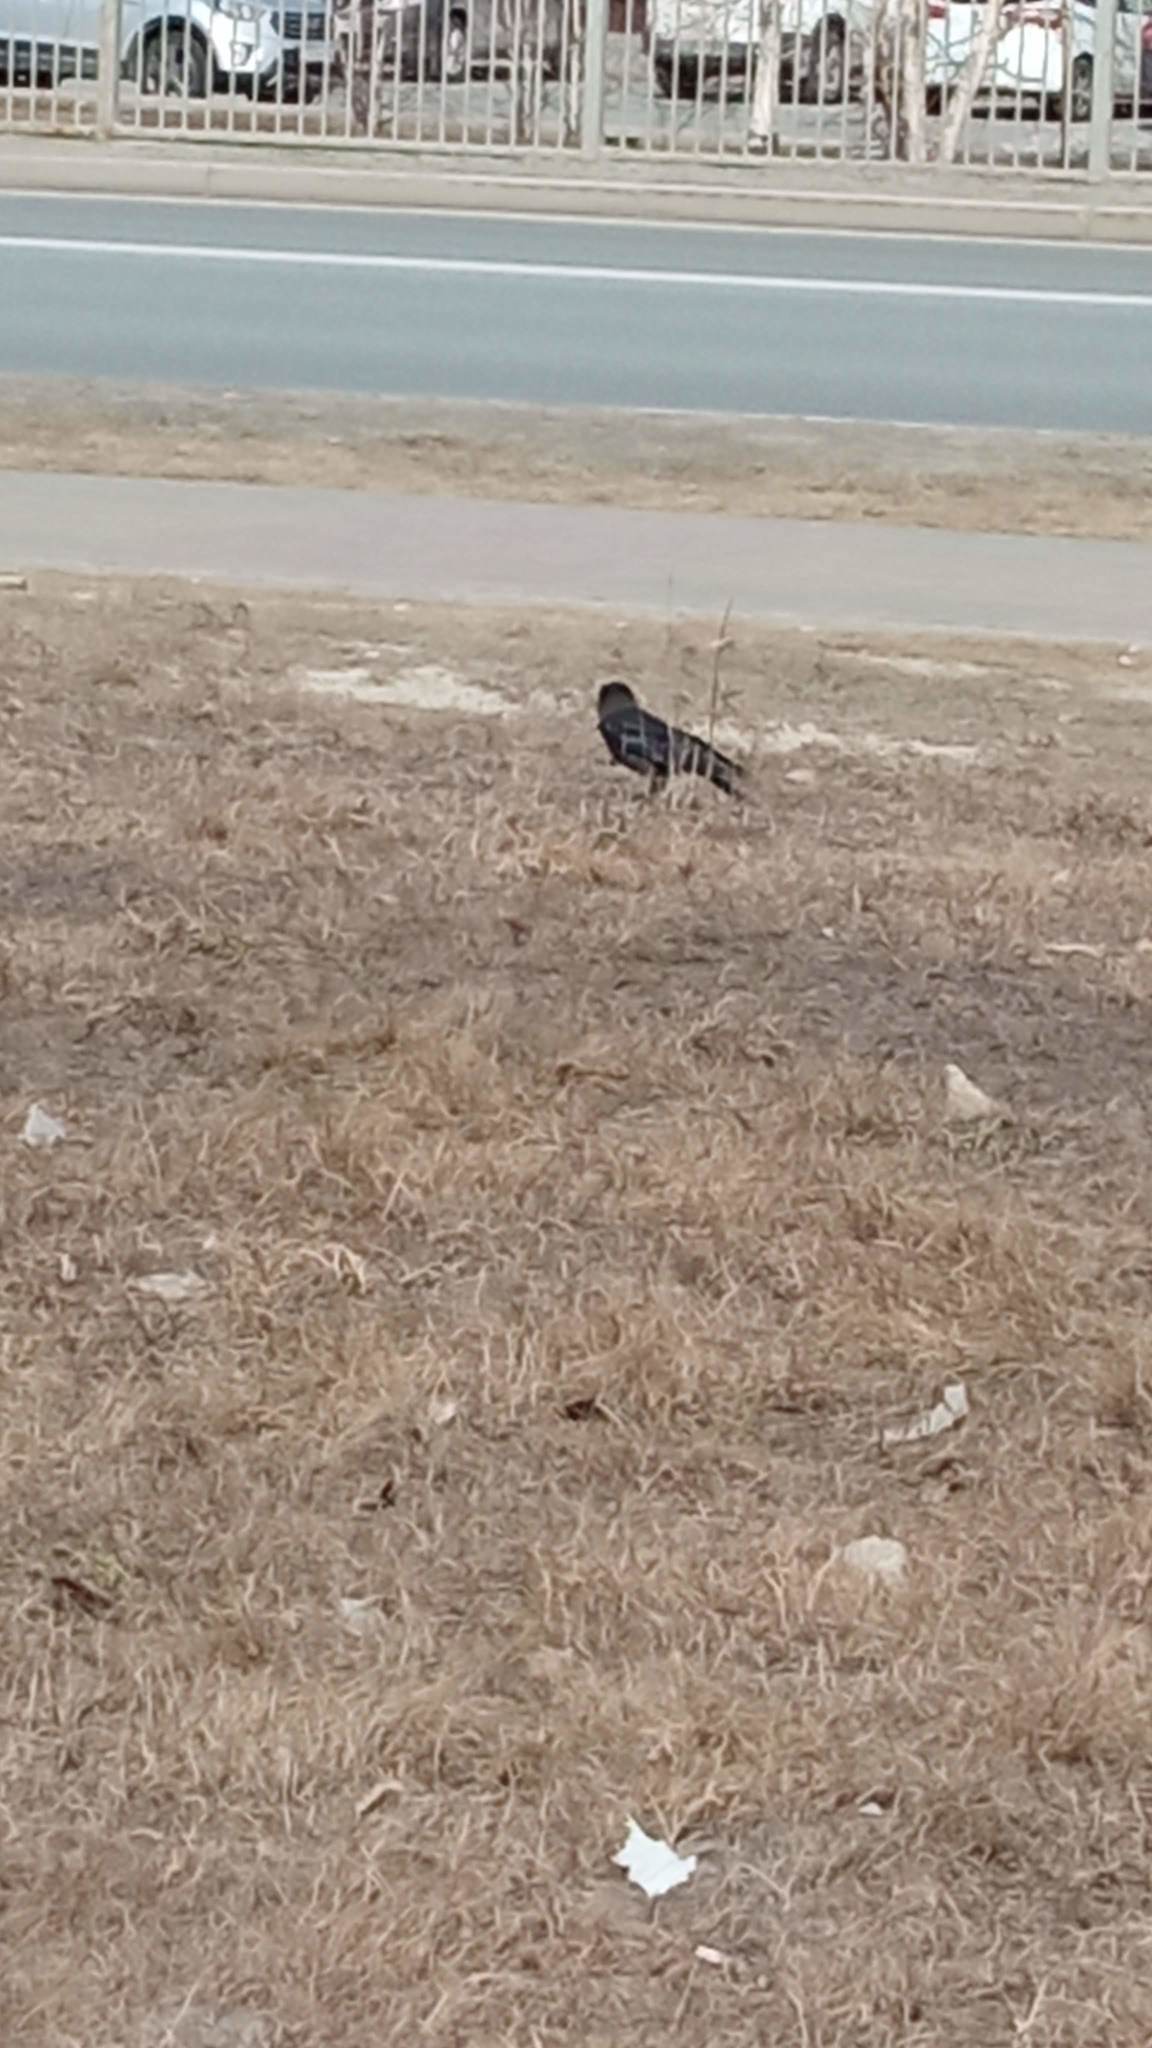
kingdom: Animalia
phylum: Chordata
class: Aves
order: Passeriformes
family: Corvidae
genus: Coloeus
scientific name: Coloeus monedula
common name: Western jackdaw
